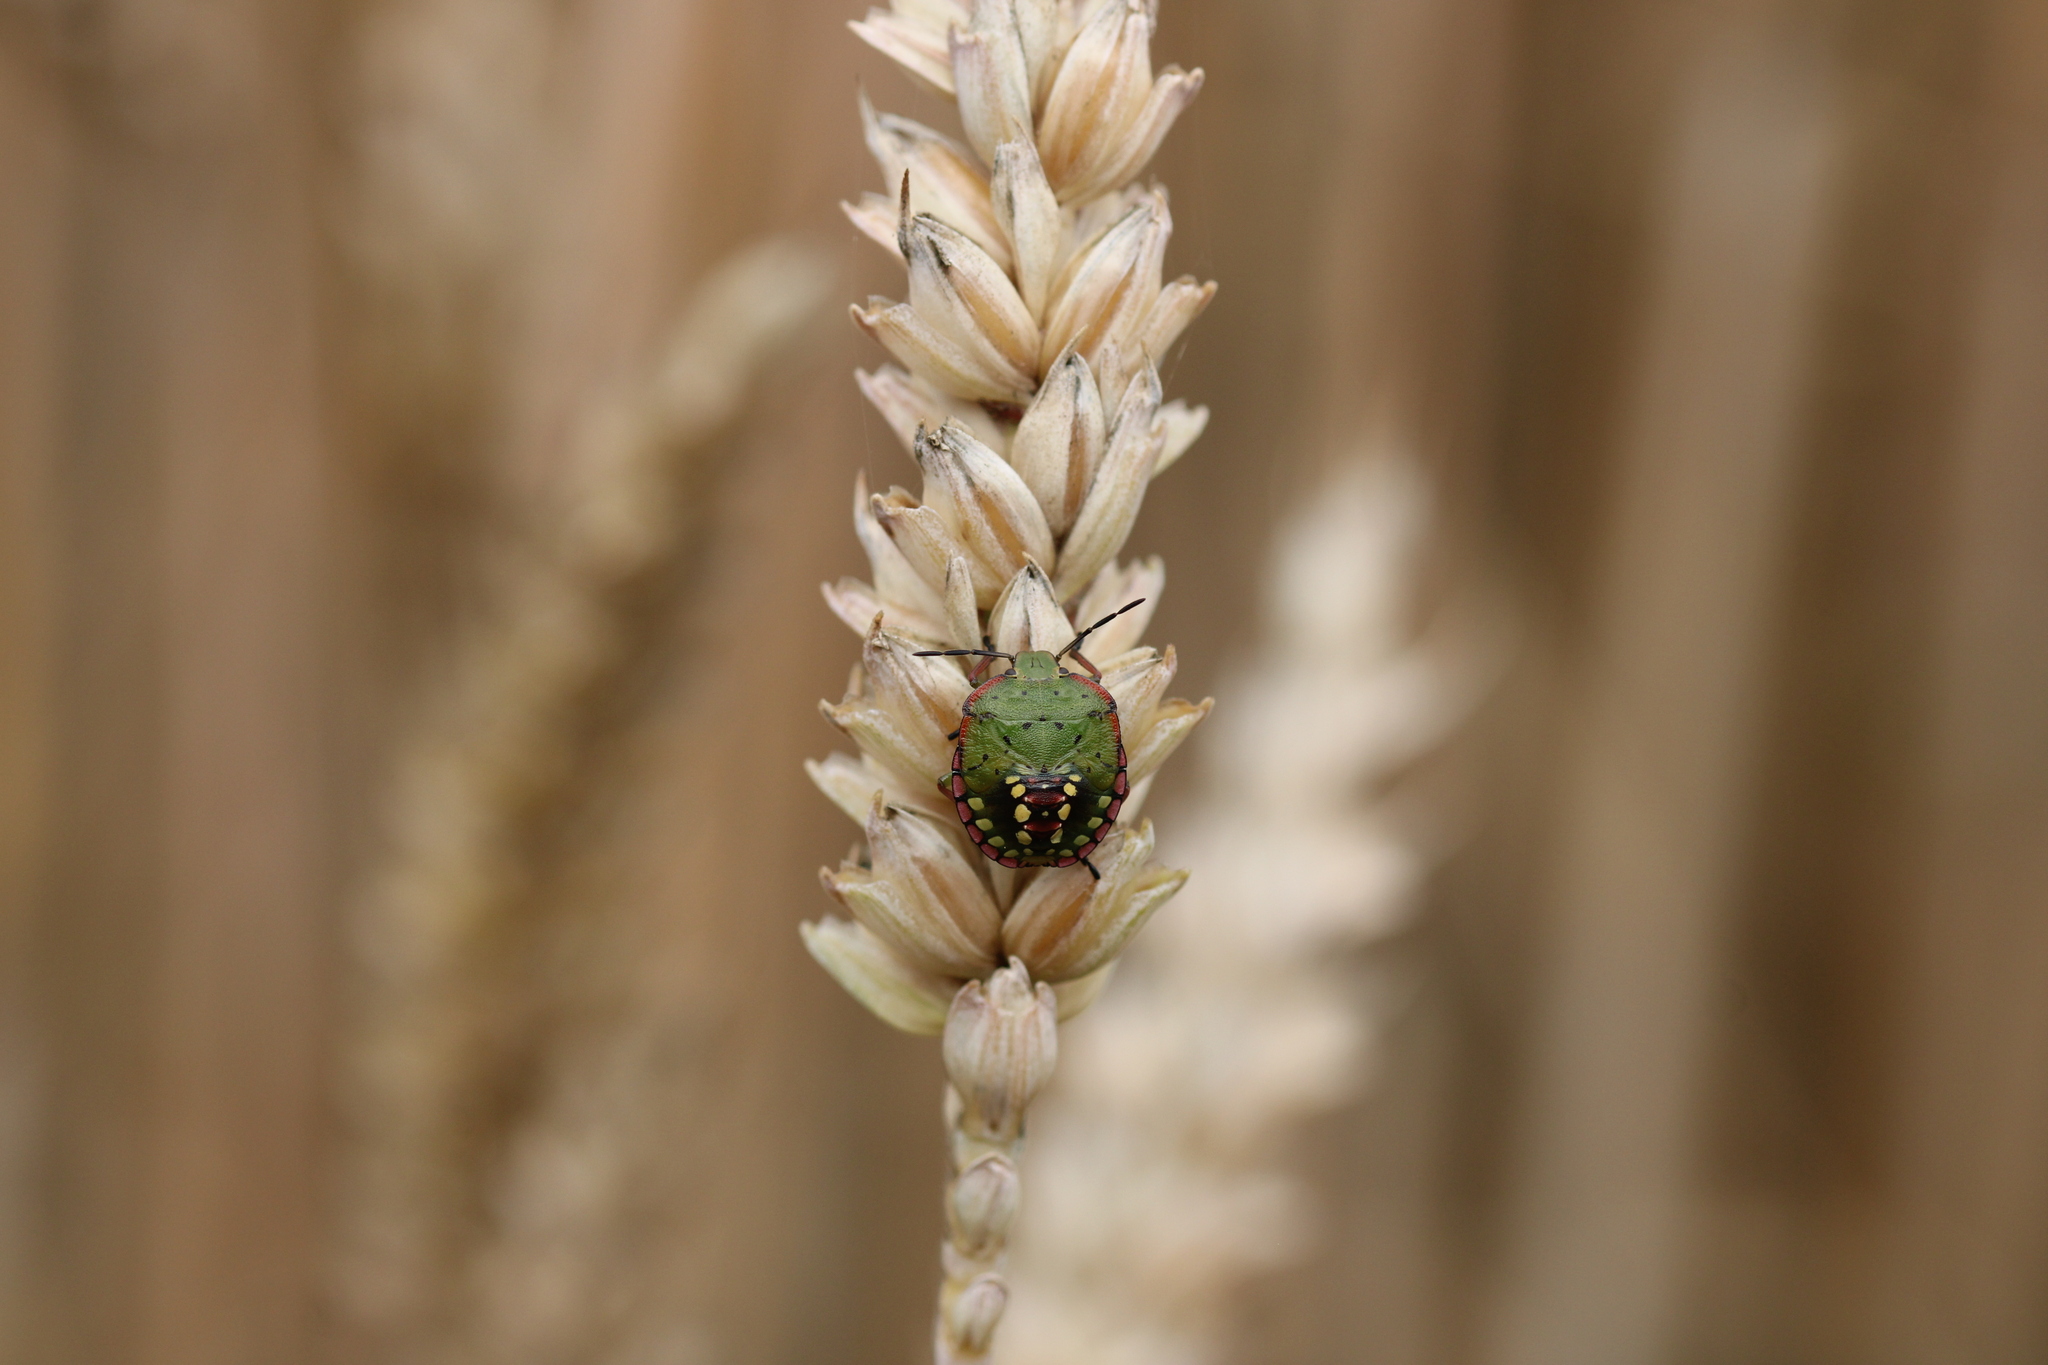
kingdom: Animalia
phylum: Arthropoda
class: Insecta
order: Hemiptera
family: Pentatomidae
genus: Nezara
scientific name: Nezara viridula
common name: Southern green stink bug
